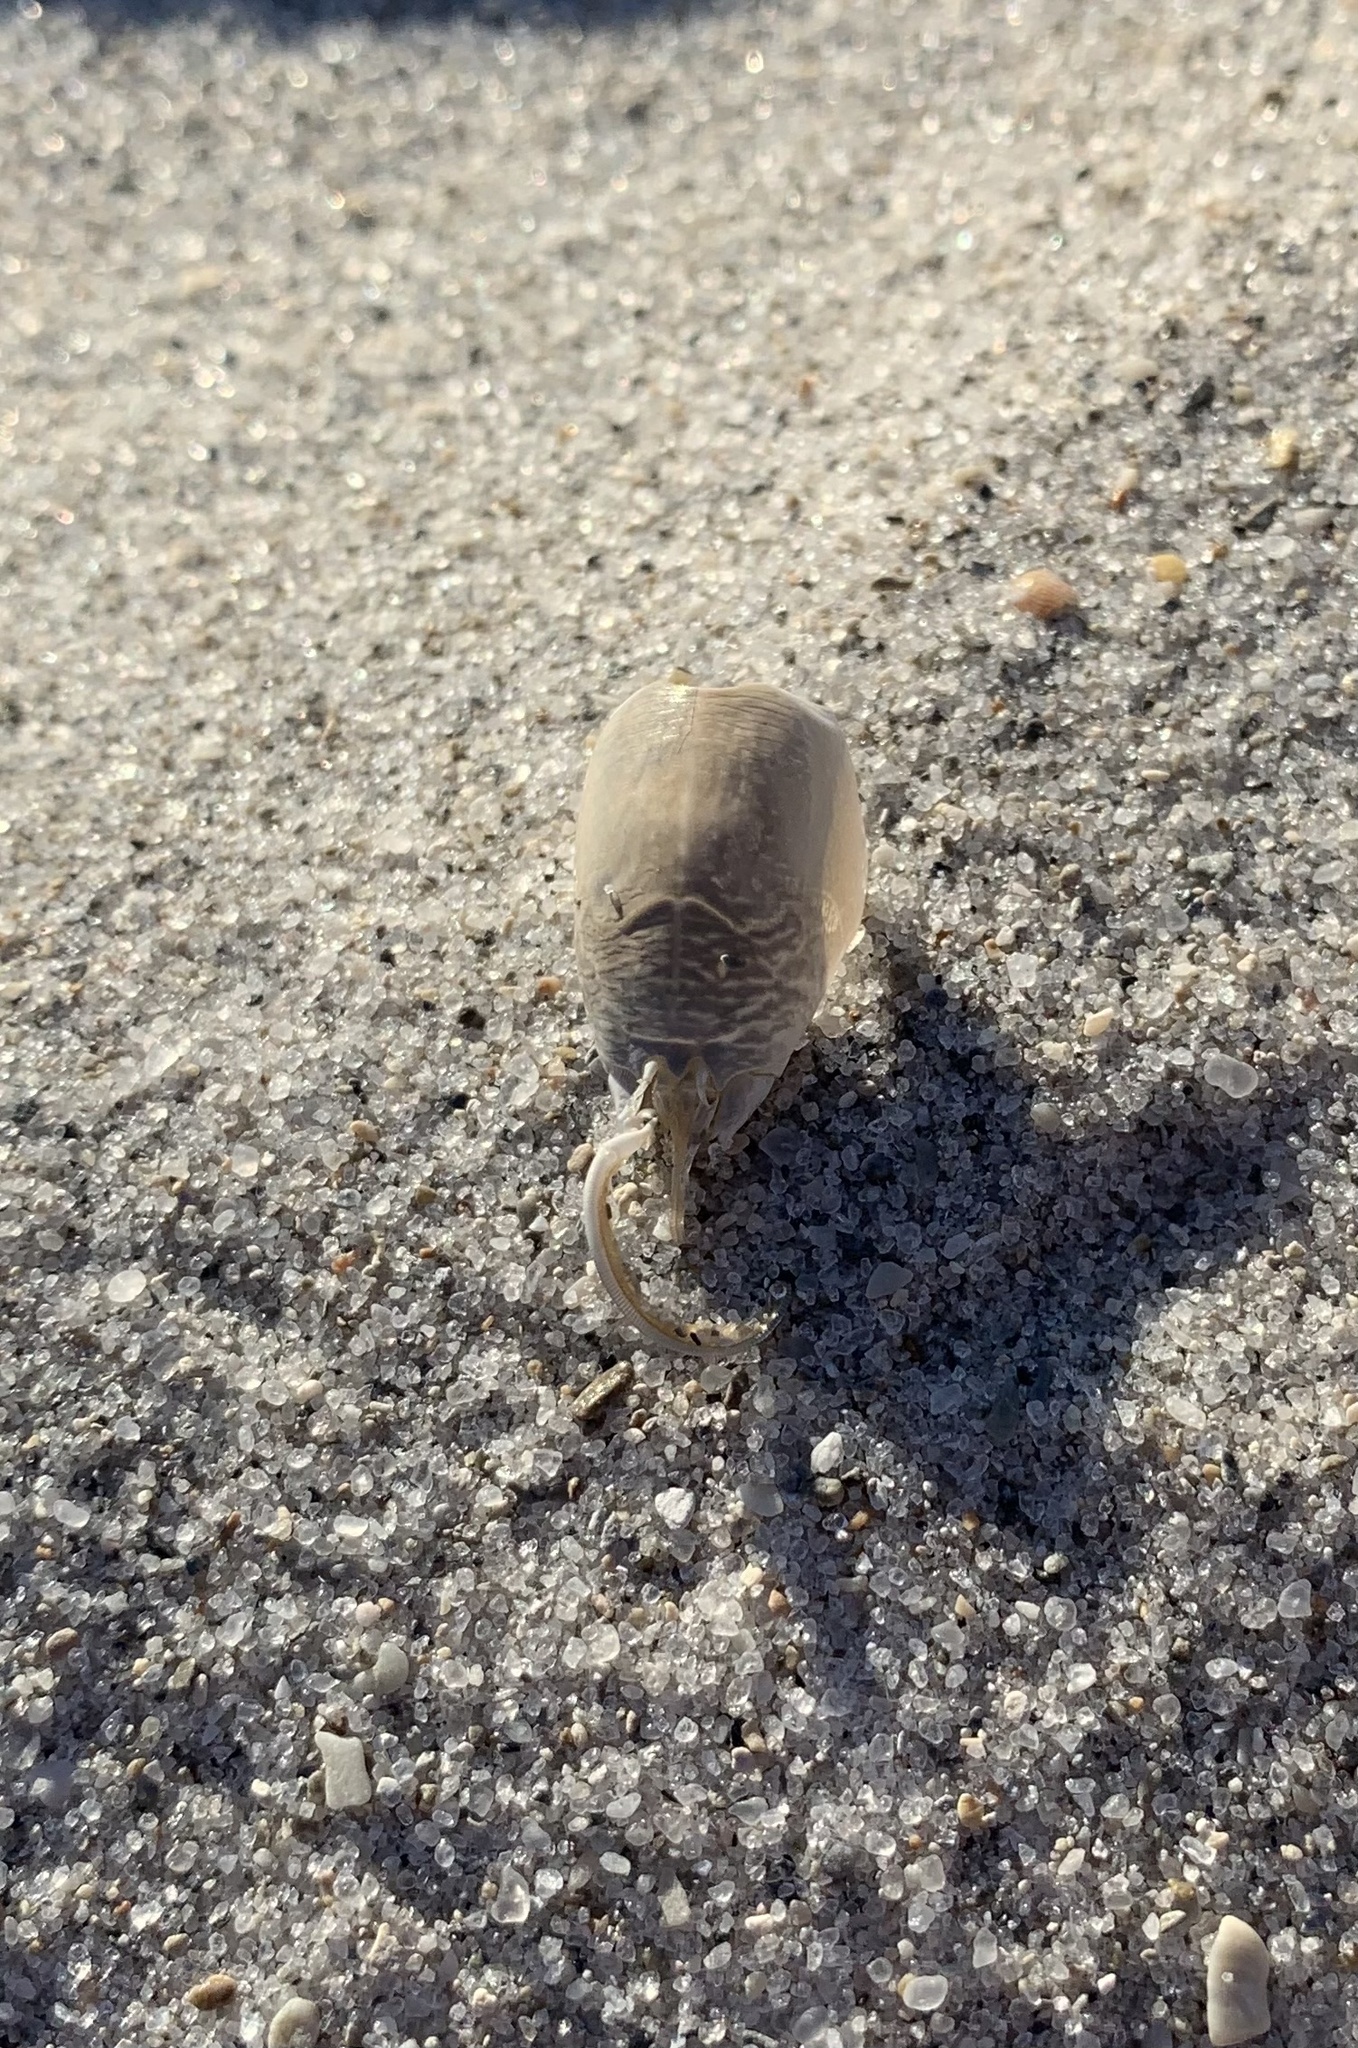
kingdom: Animalia
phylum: Arthropoda
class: Malacostraca
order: Decapoda
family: Hippidae
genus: Emerita
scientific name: Emerita talpoida
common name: Atlantic sand crab
